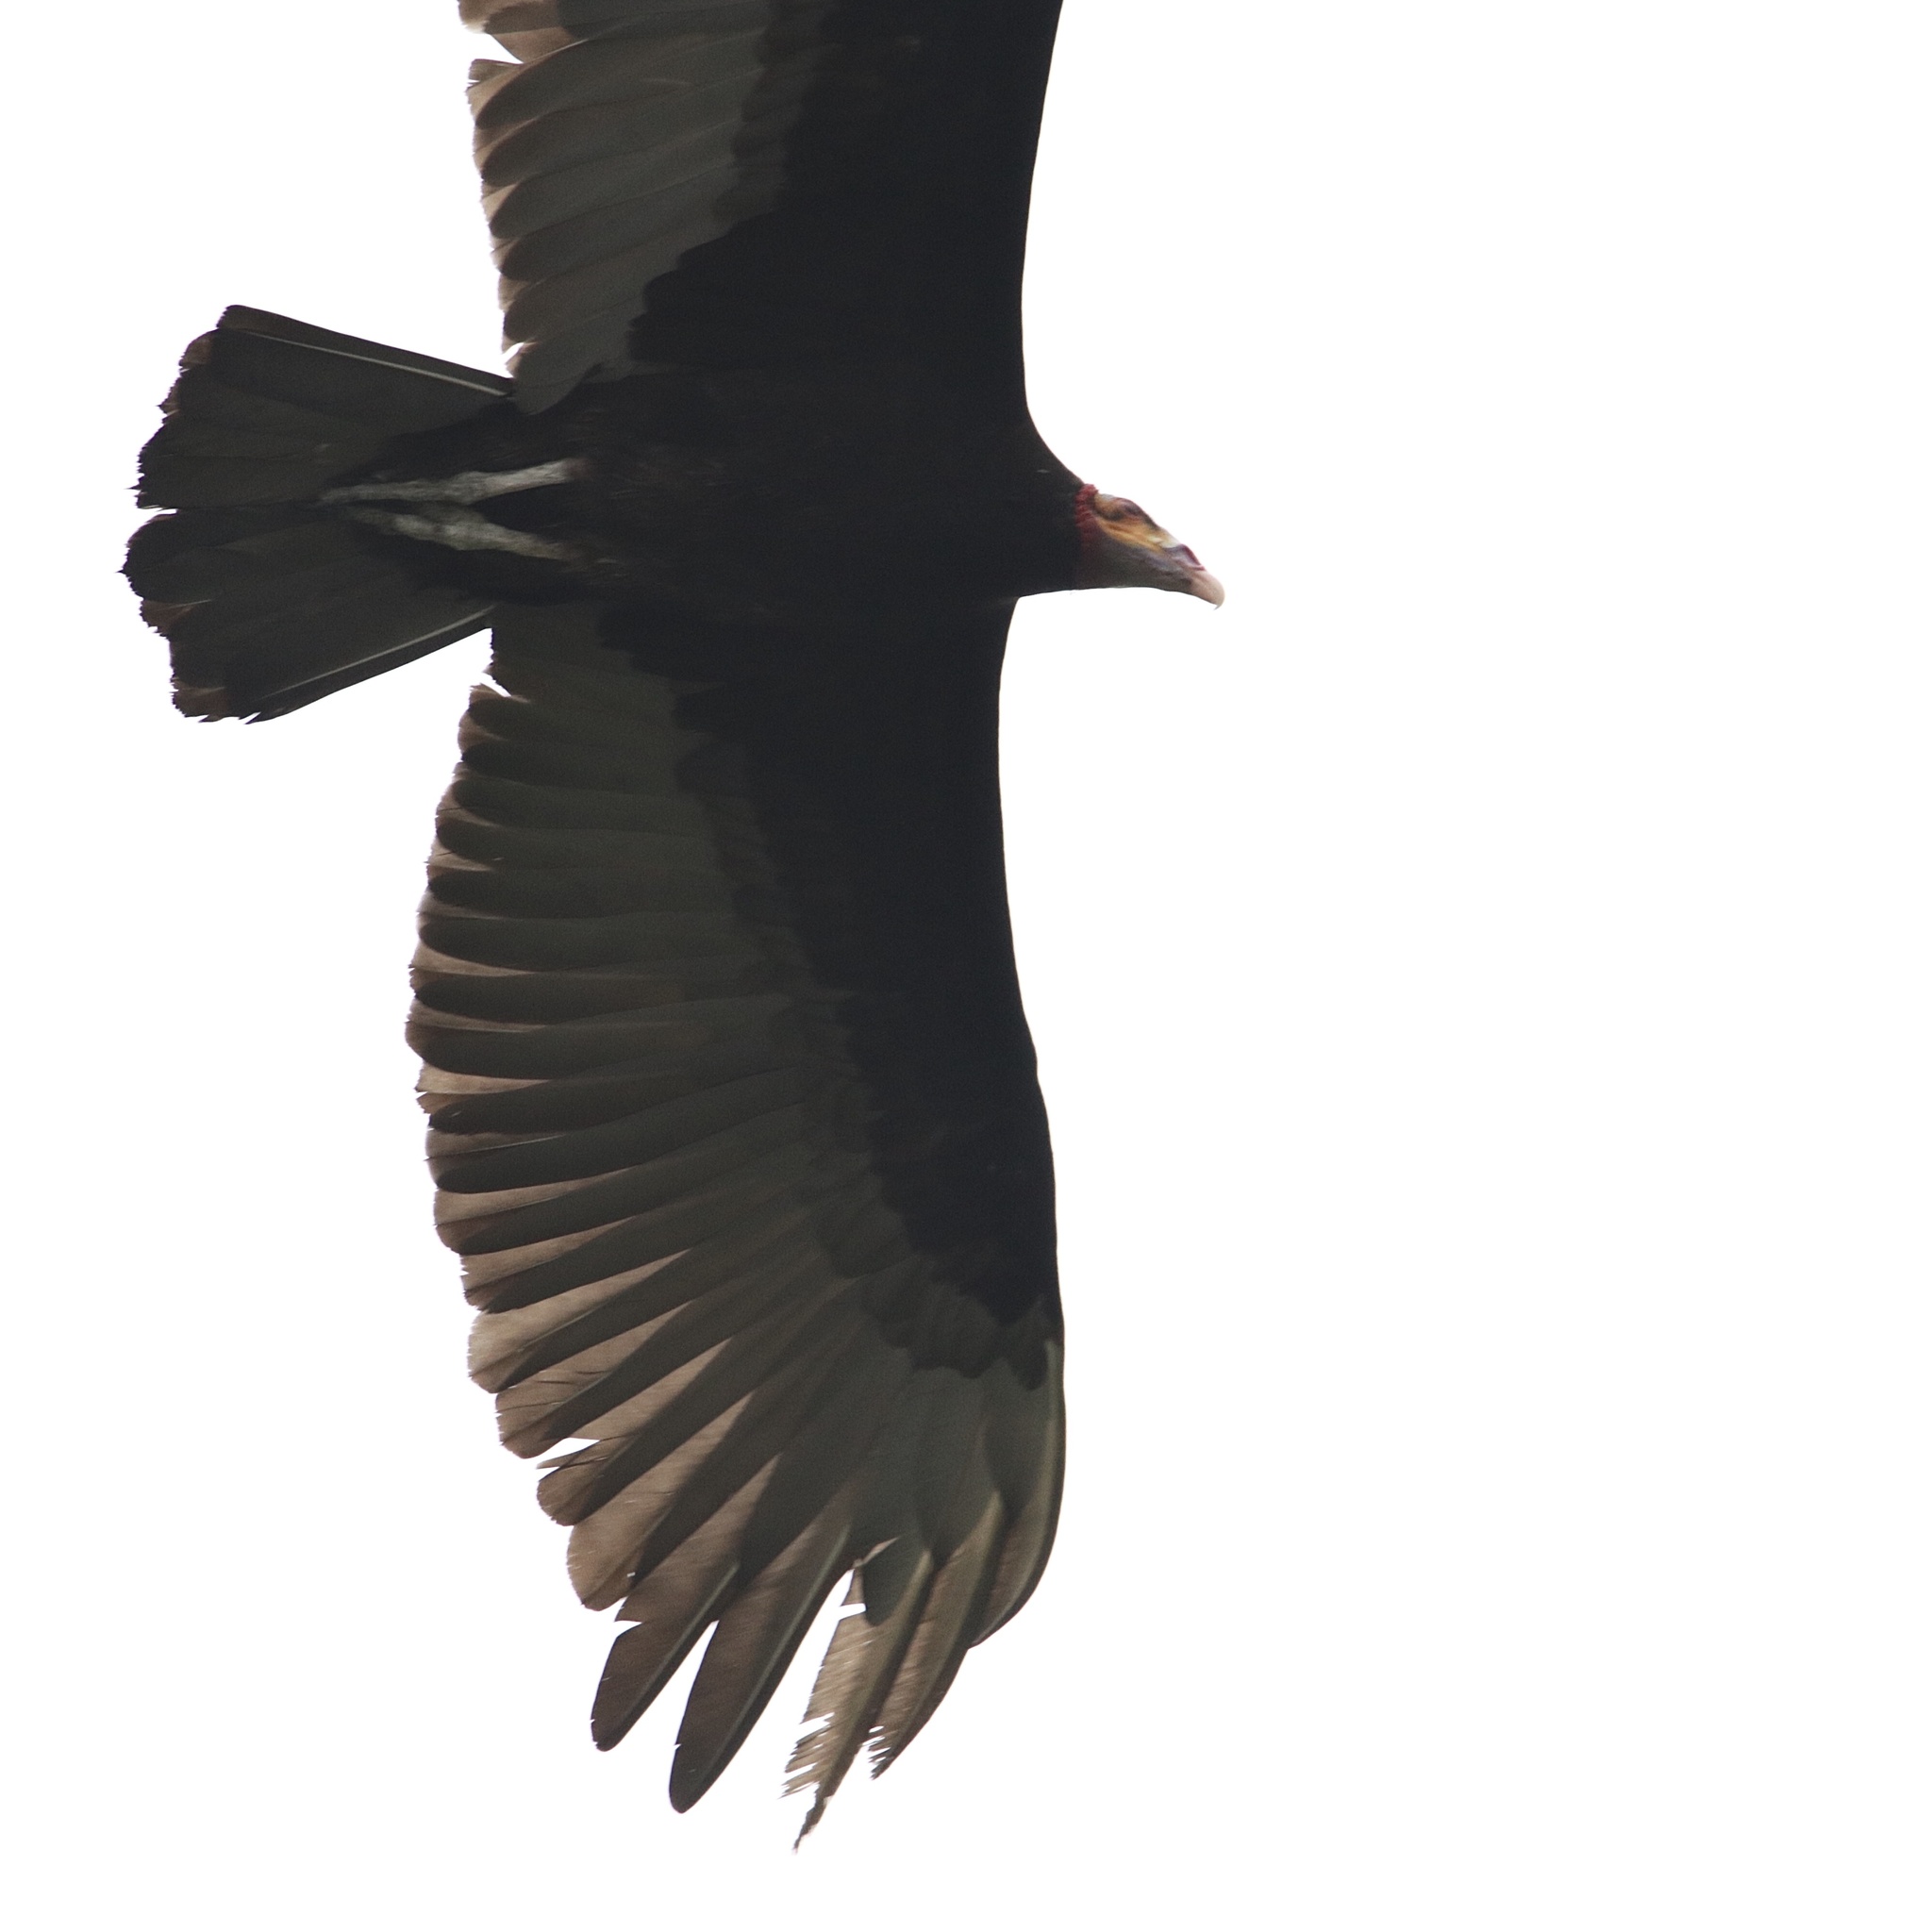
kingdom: Animalia
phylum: Chordata
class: Aves
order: Accipitriformes
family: Cathartidae
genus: Cathartes
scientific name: Cathartes burrovianus
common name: Lesser yellow-headed vulture
